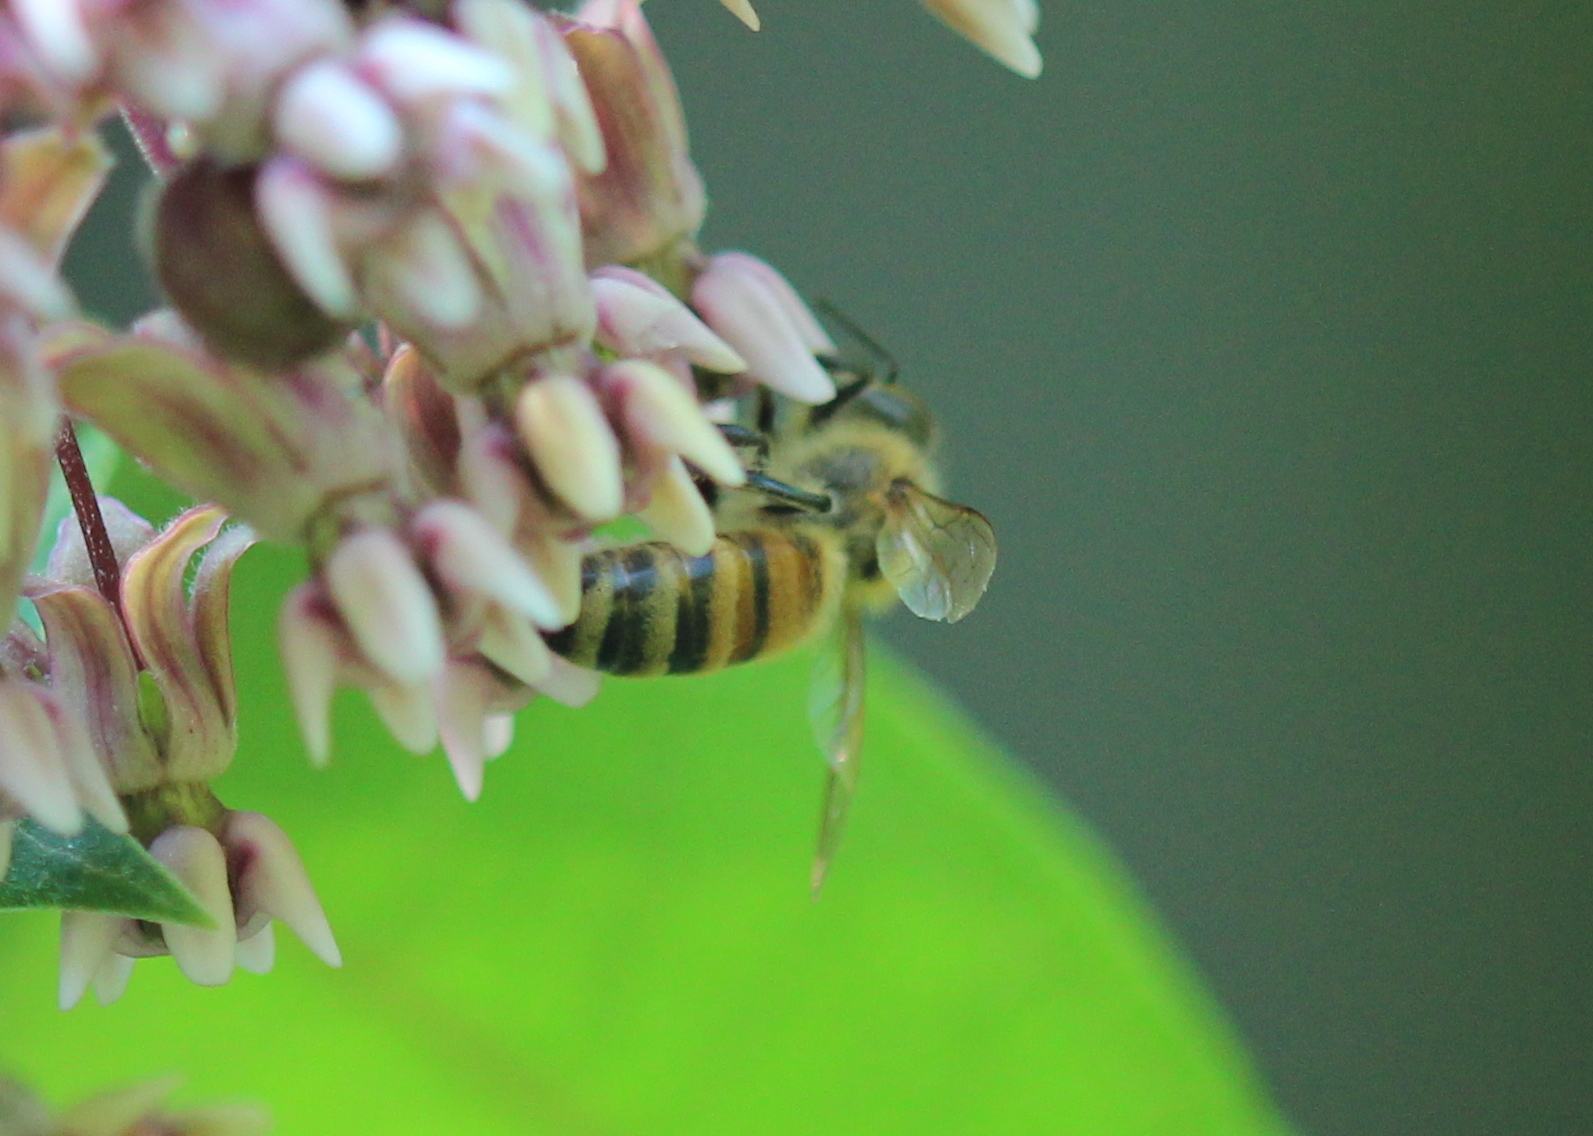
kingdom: Animalia
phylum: Arthropoda
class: Insecta
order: Hymenoptera
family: Apidae
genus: Apis
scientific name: Apis mellifera
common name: Honey bee
